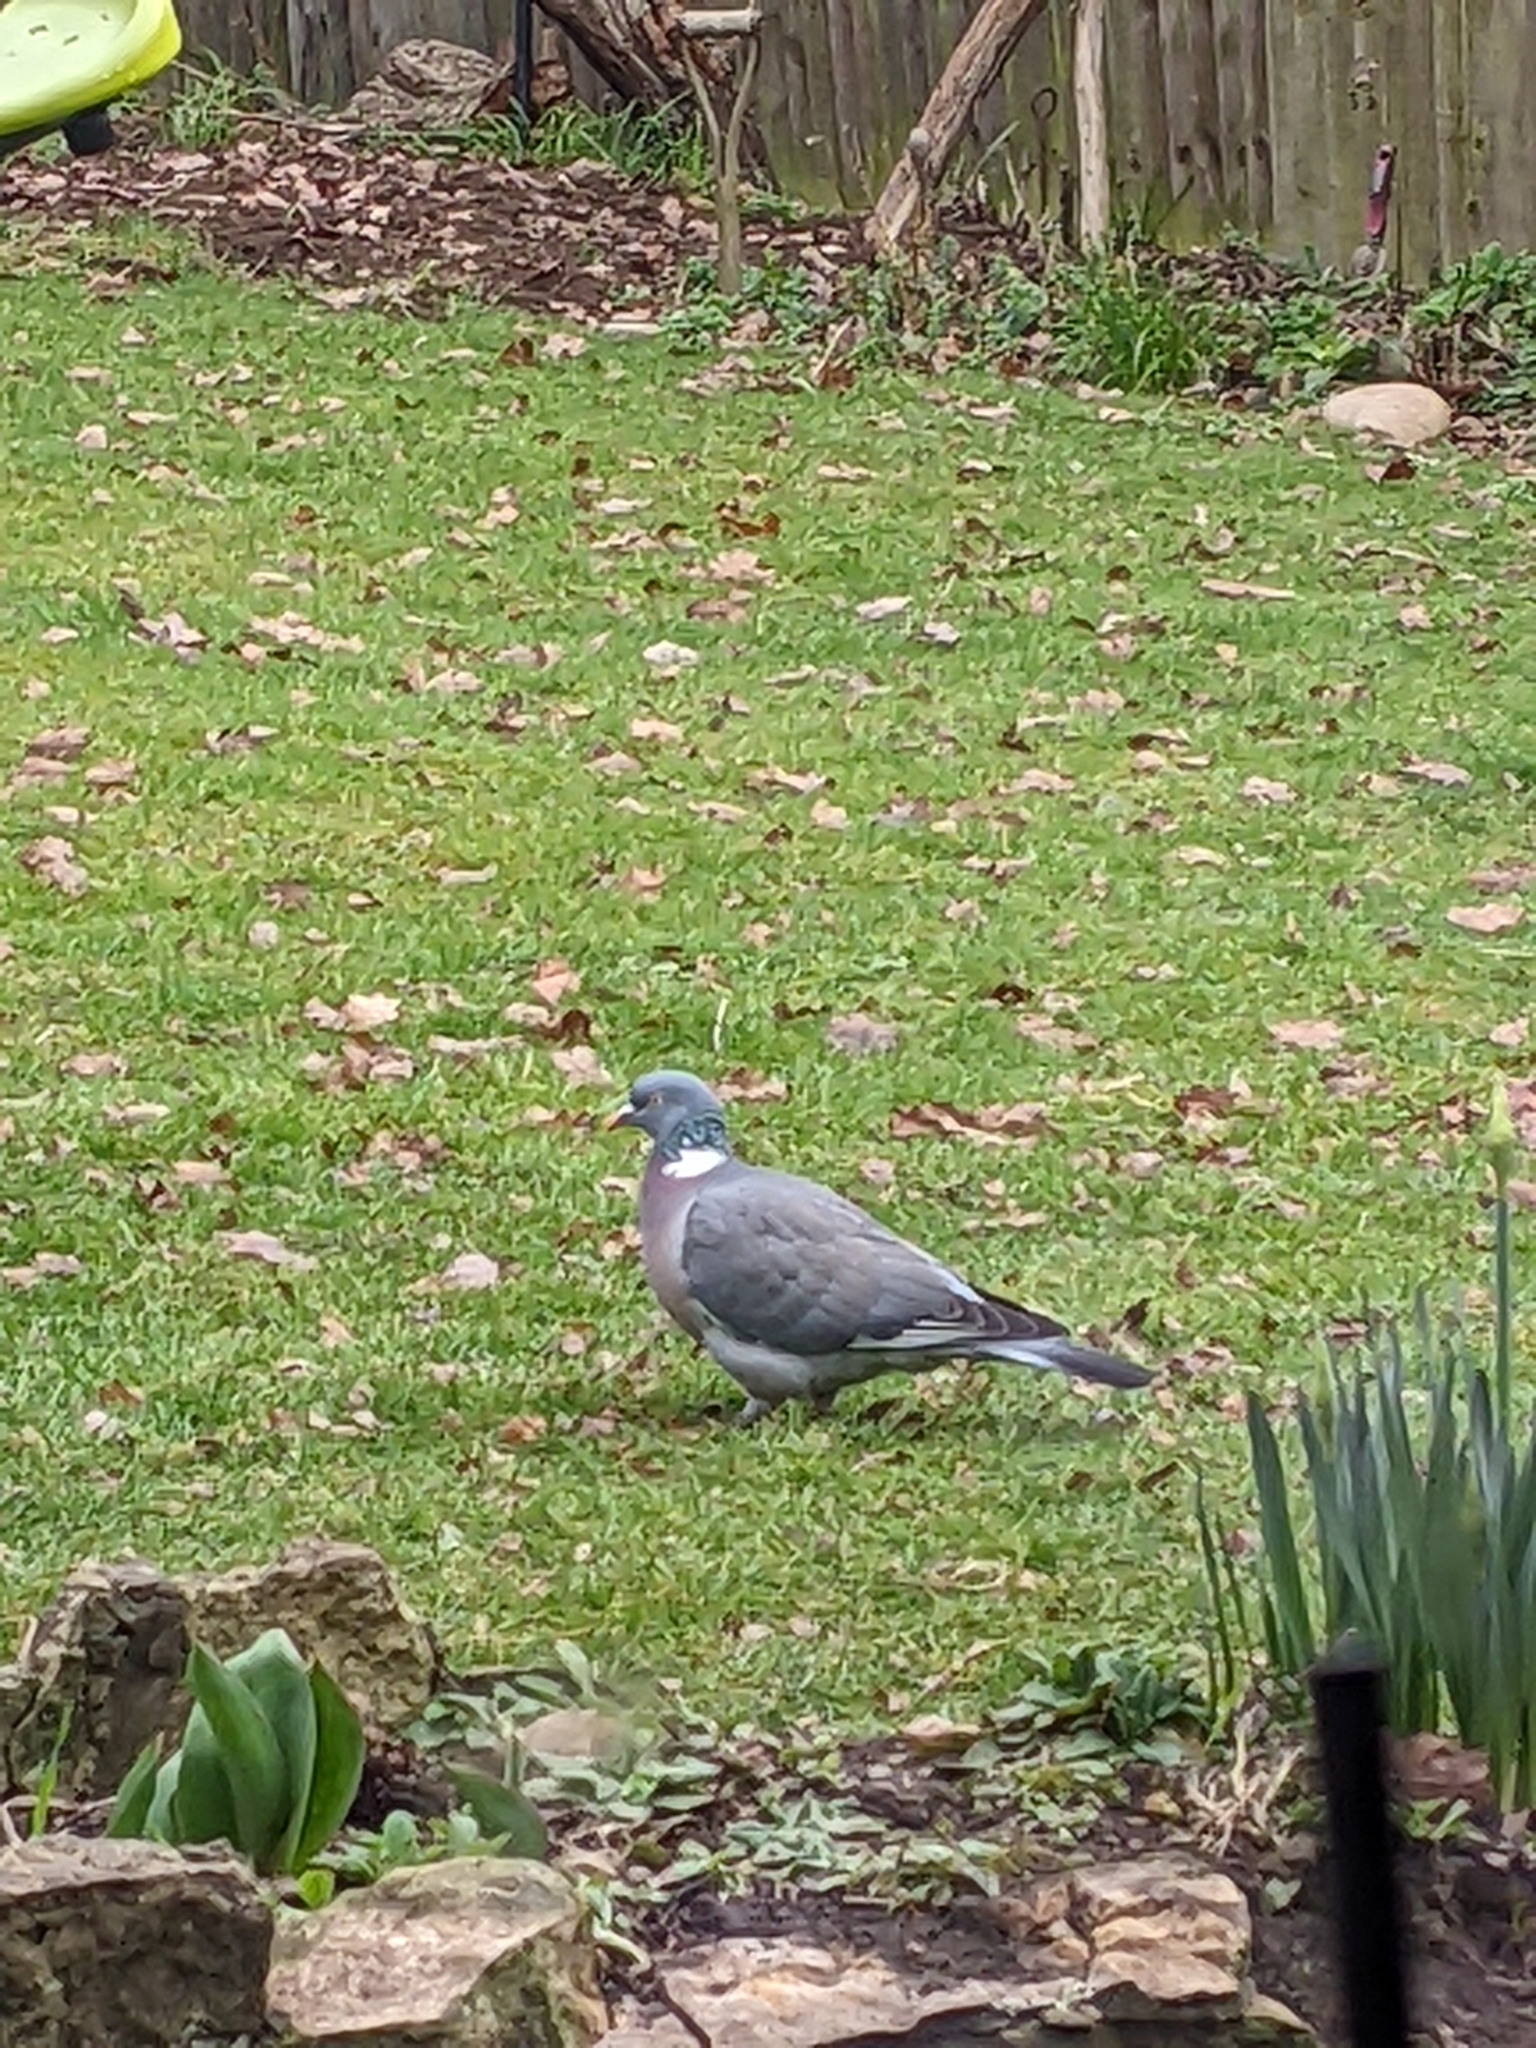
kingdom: Animalia
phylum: Chordata
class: Aves
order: Columbiformes
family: Columbidae
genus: Columba
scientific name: Columba palumbus
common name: Common wood pigeon
